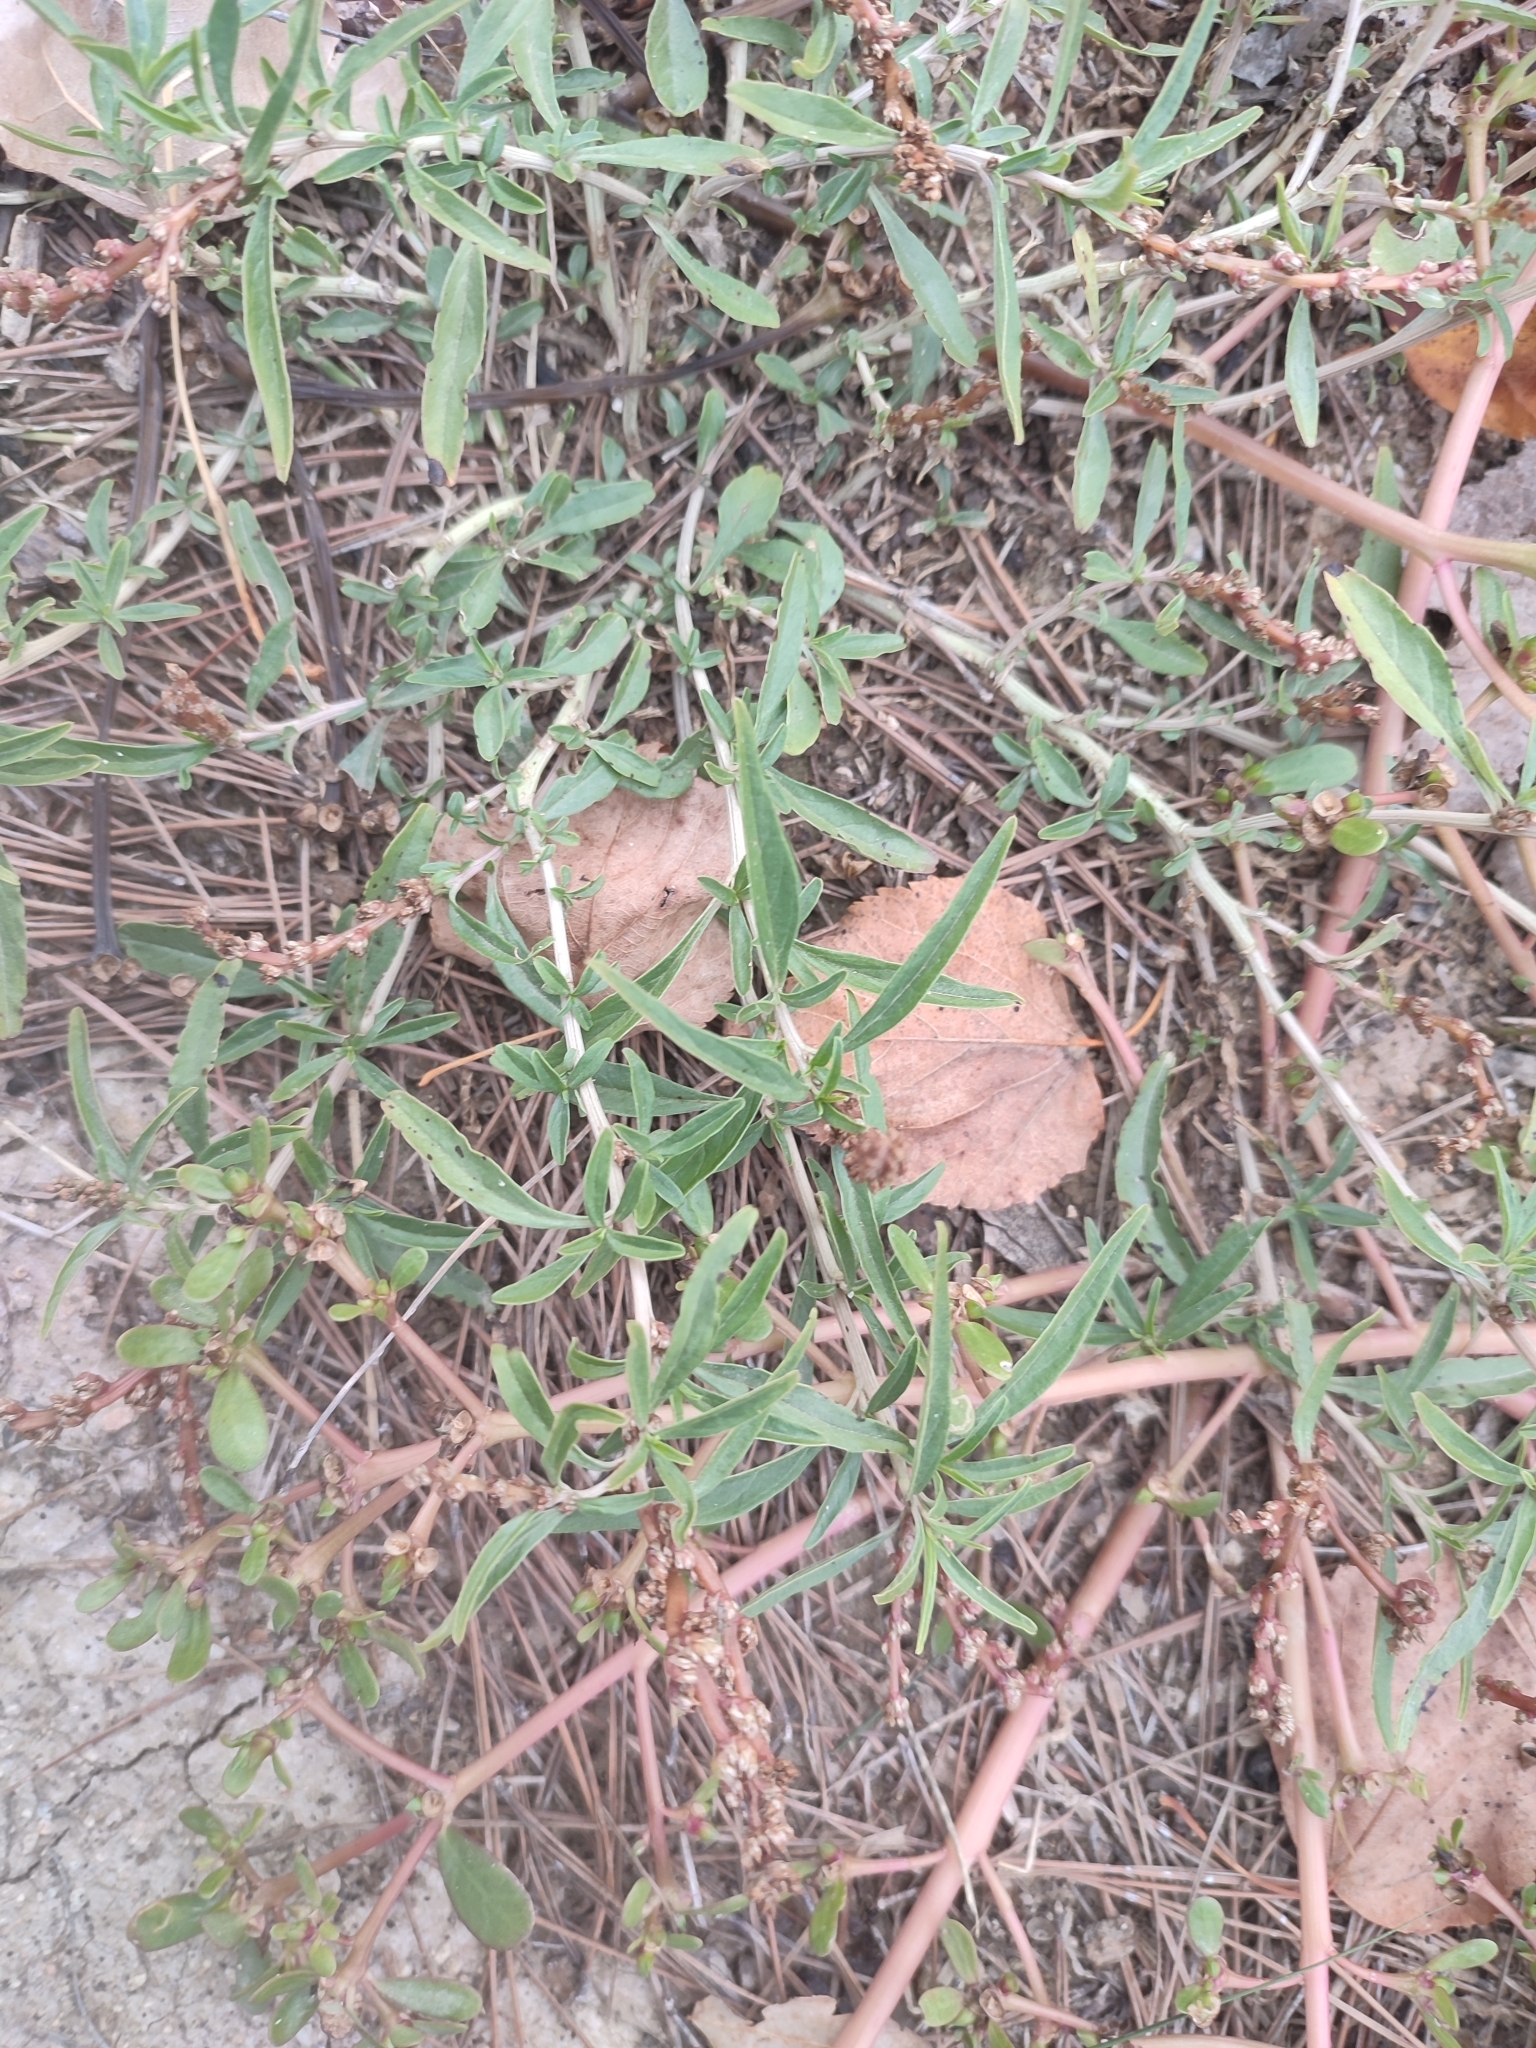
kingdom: Plantae
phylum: Tracheophyta
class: Magnoliopsida
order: Caryophyllales
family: Amaranthaceae
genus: Amaranthus
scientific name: Amaranthus muricatus
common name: African amaranth
